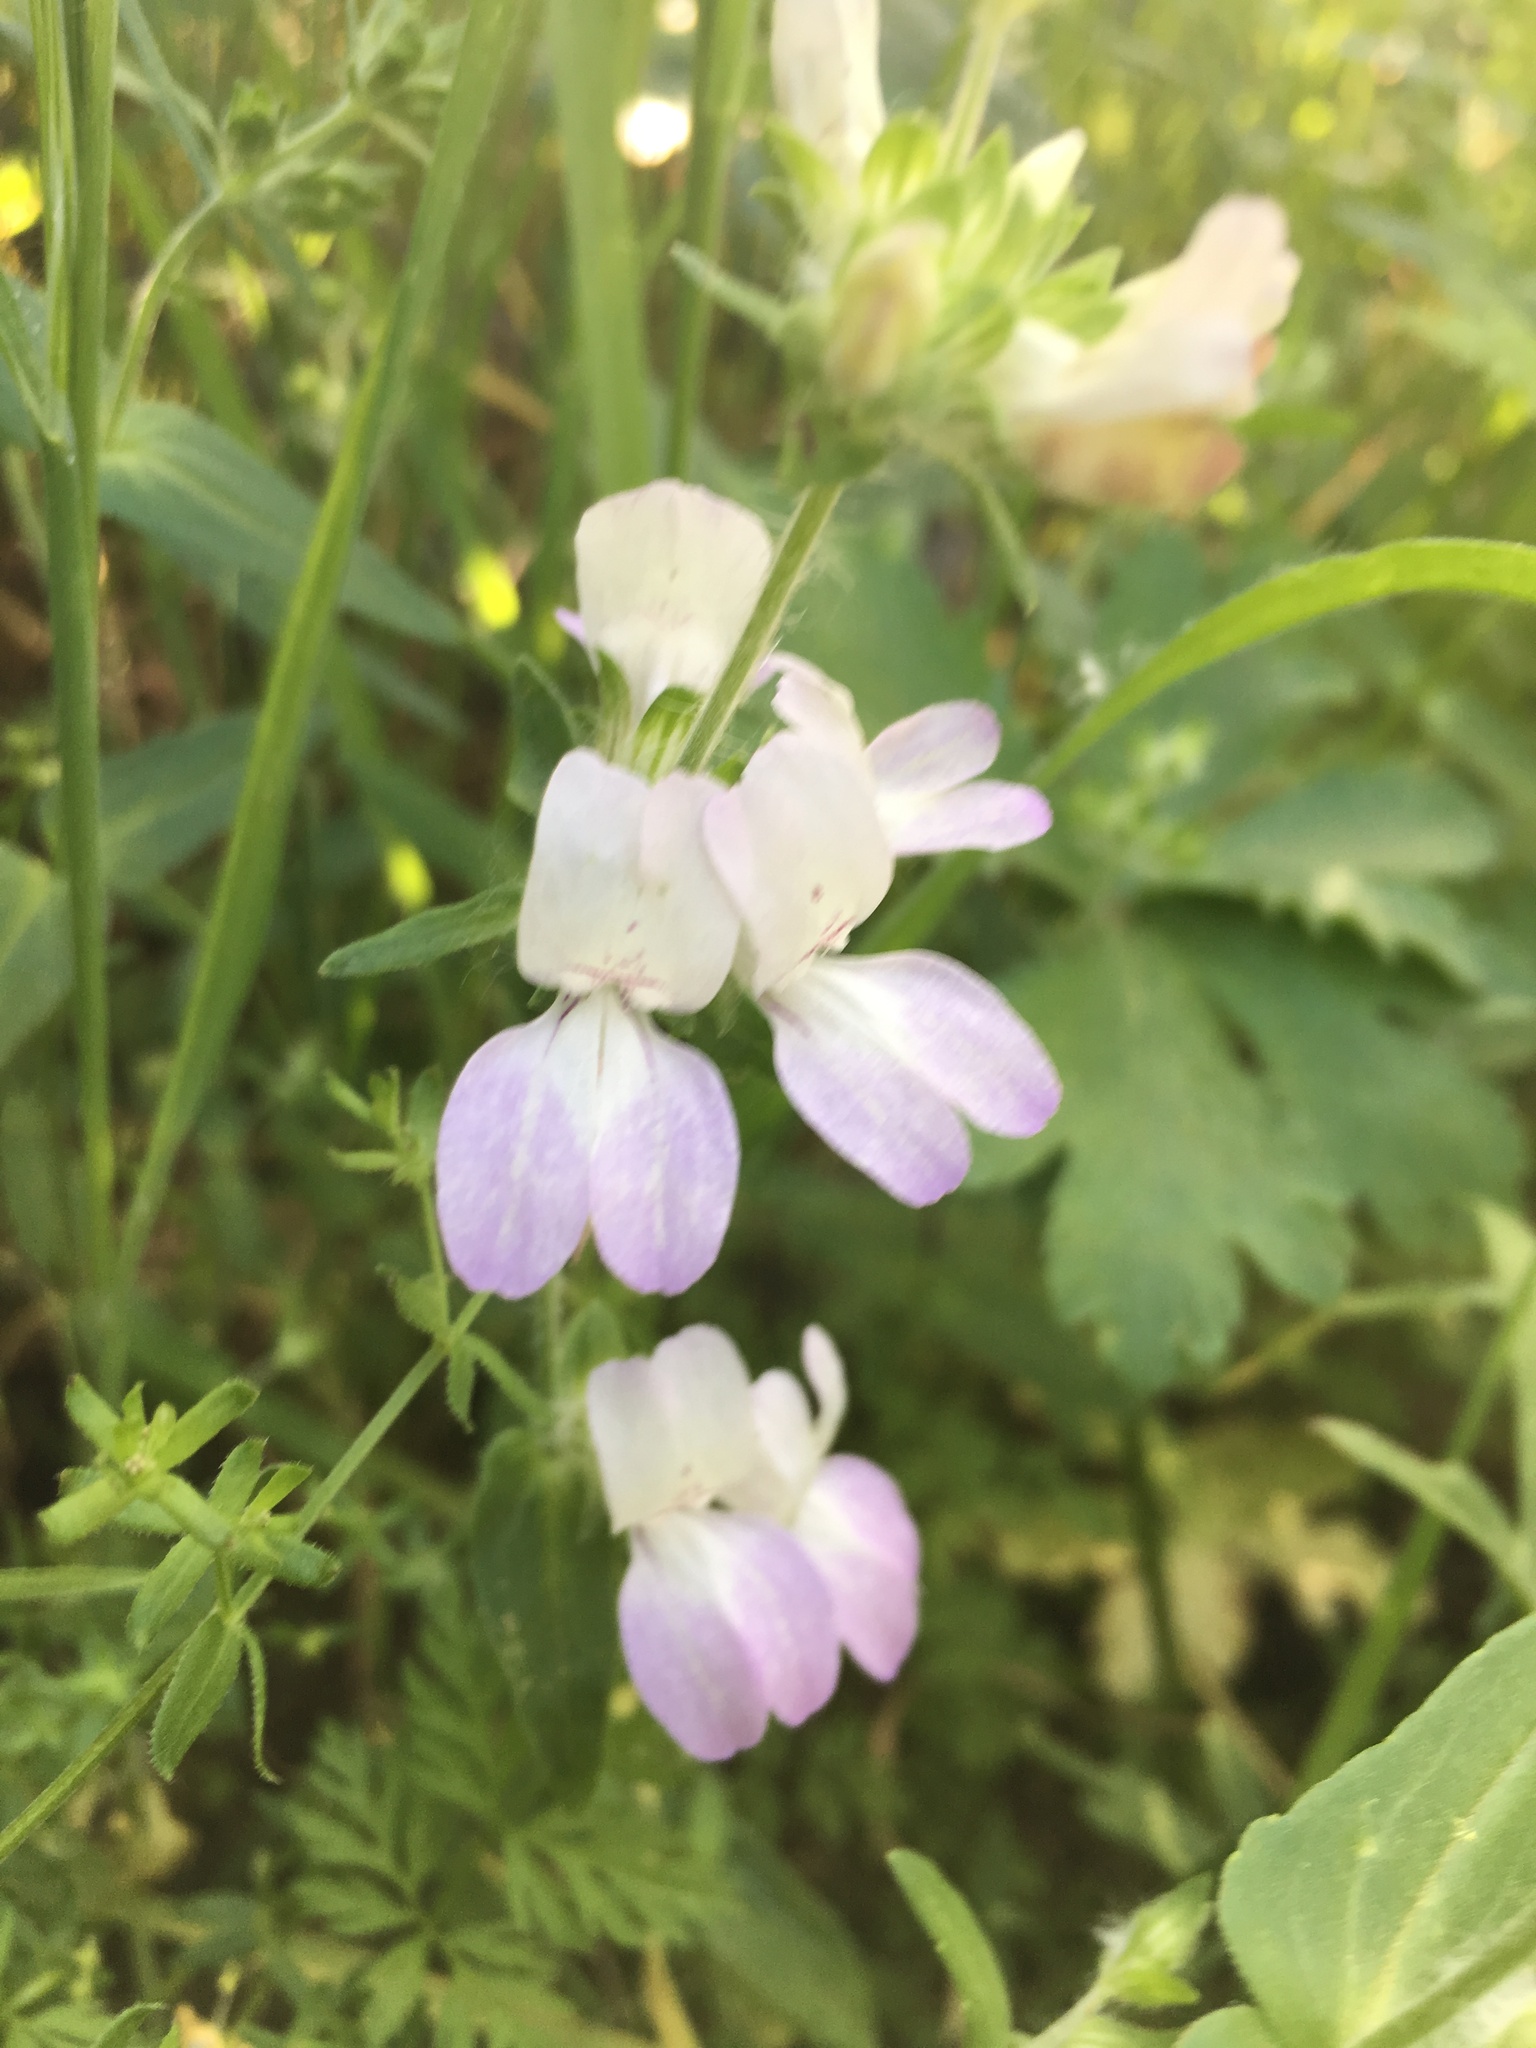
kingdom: Plantae
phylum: Tracheophyta
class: Magnoliopsida
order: Lamiales
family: Plantaginaceae
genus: Collinsia
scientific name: Collinsia heterophylla
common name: Chinese-houses
